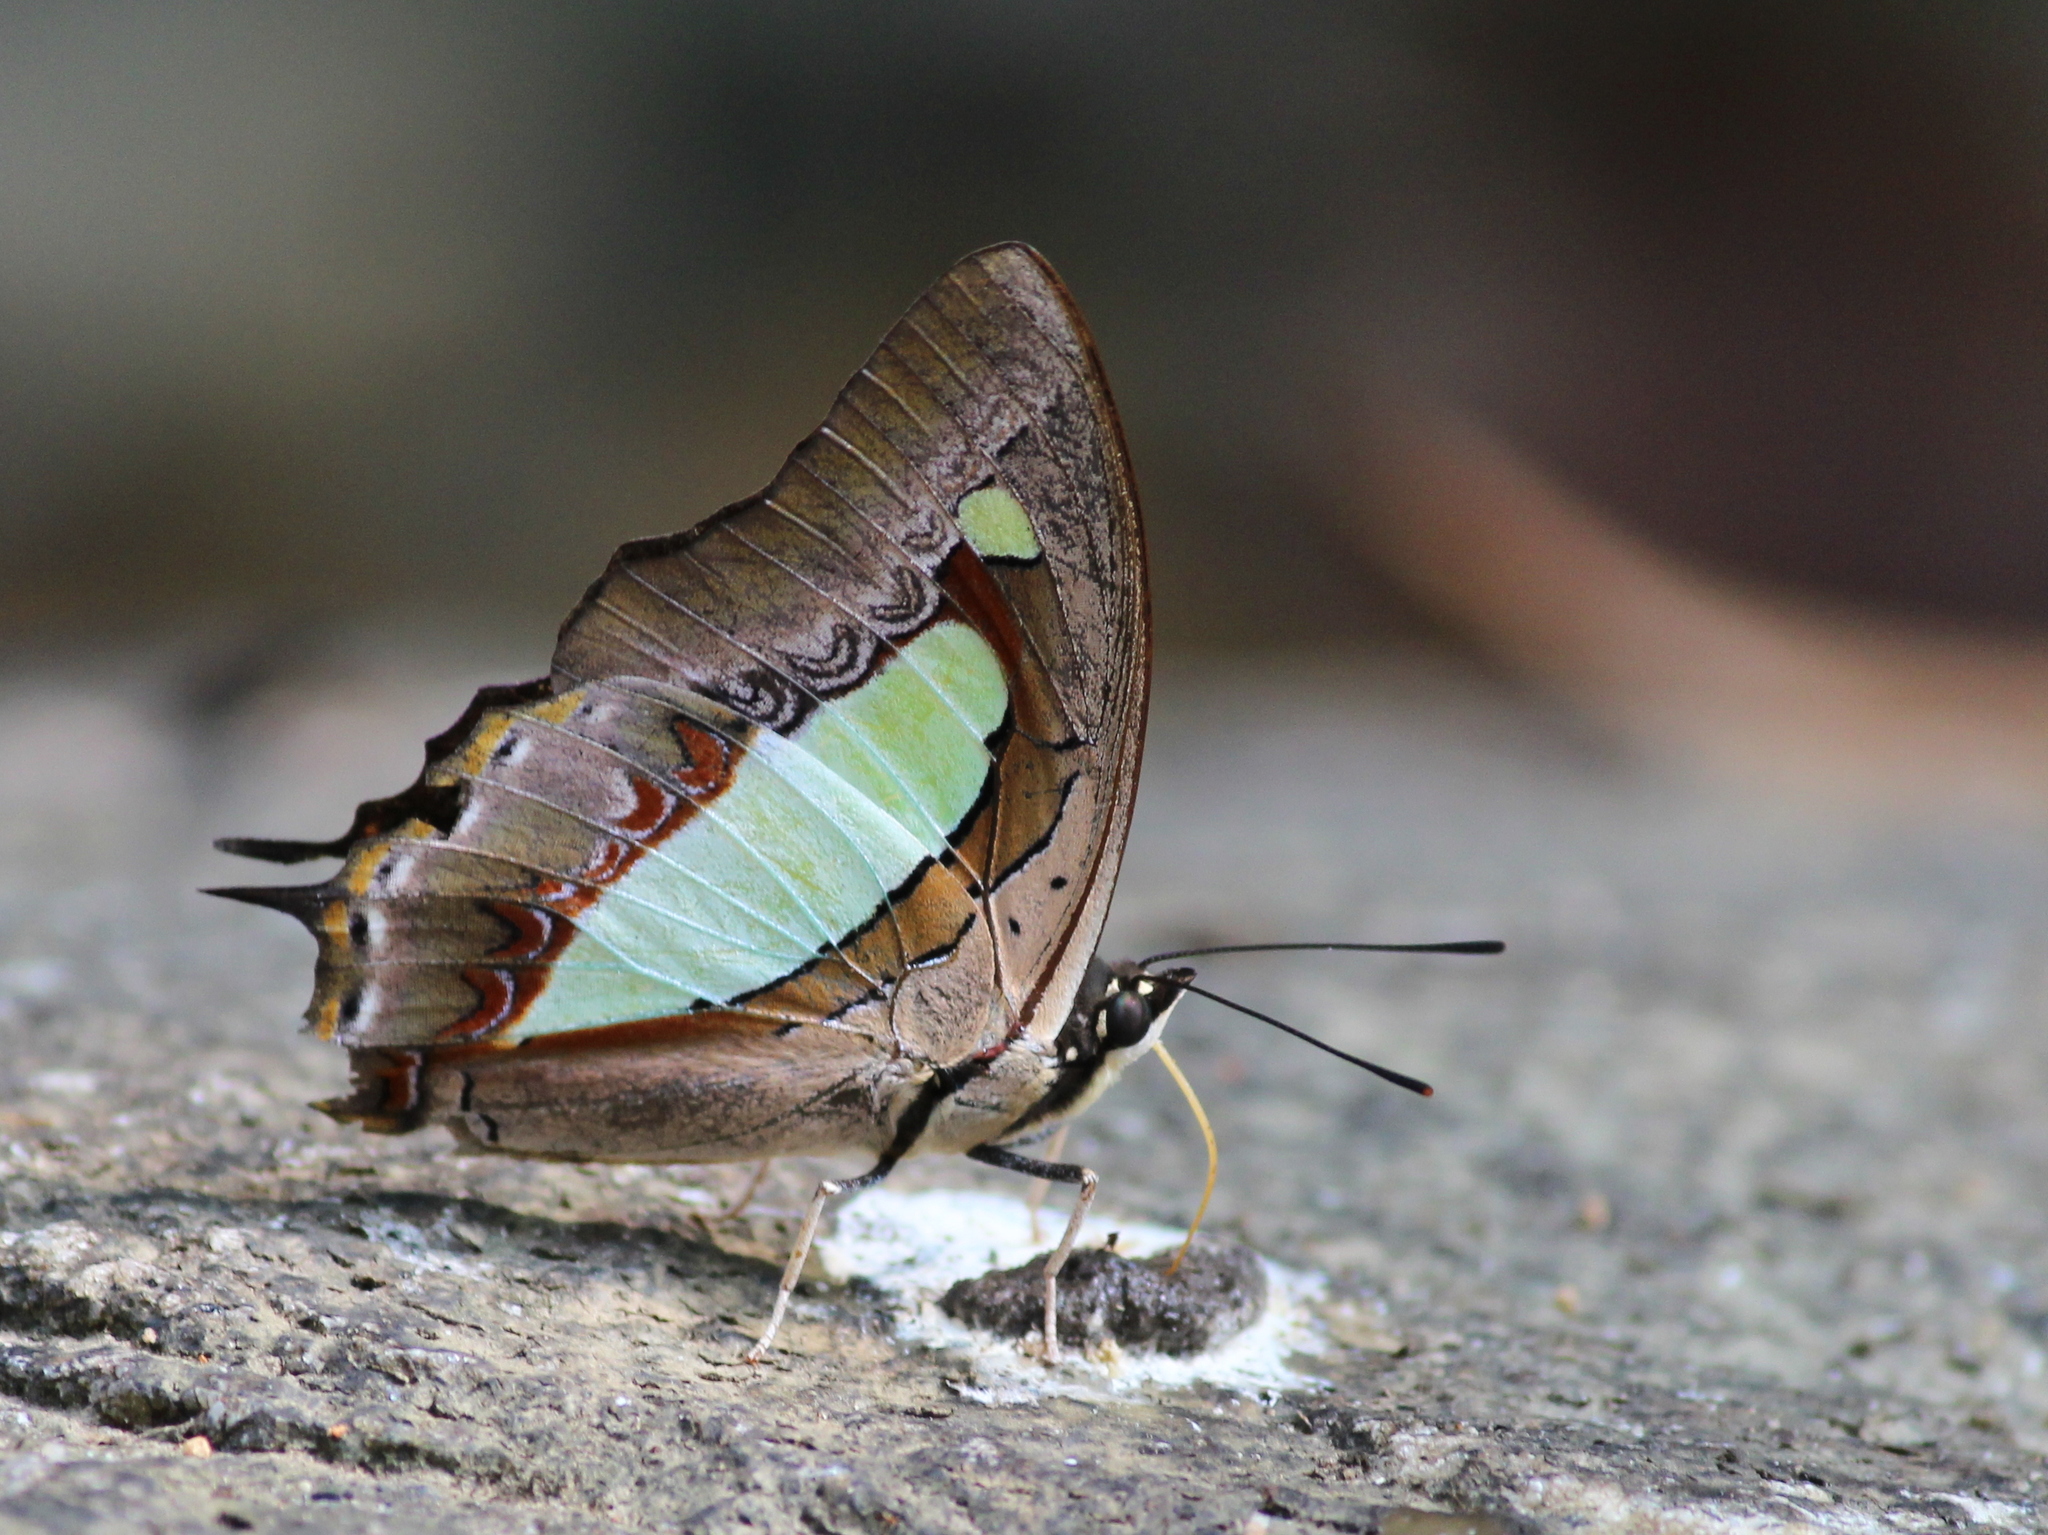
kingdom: Animalia
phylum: Arthropoda
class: Insecta
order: Lepidoptera
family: Nymphalidae
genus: Polyura
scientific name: Polyura
